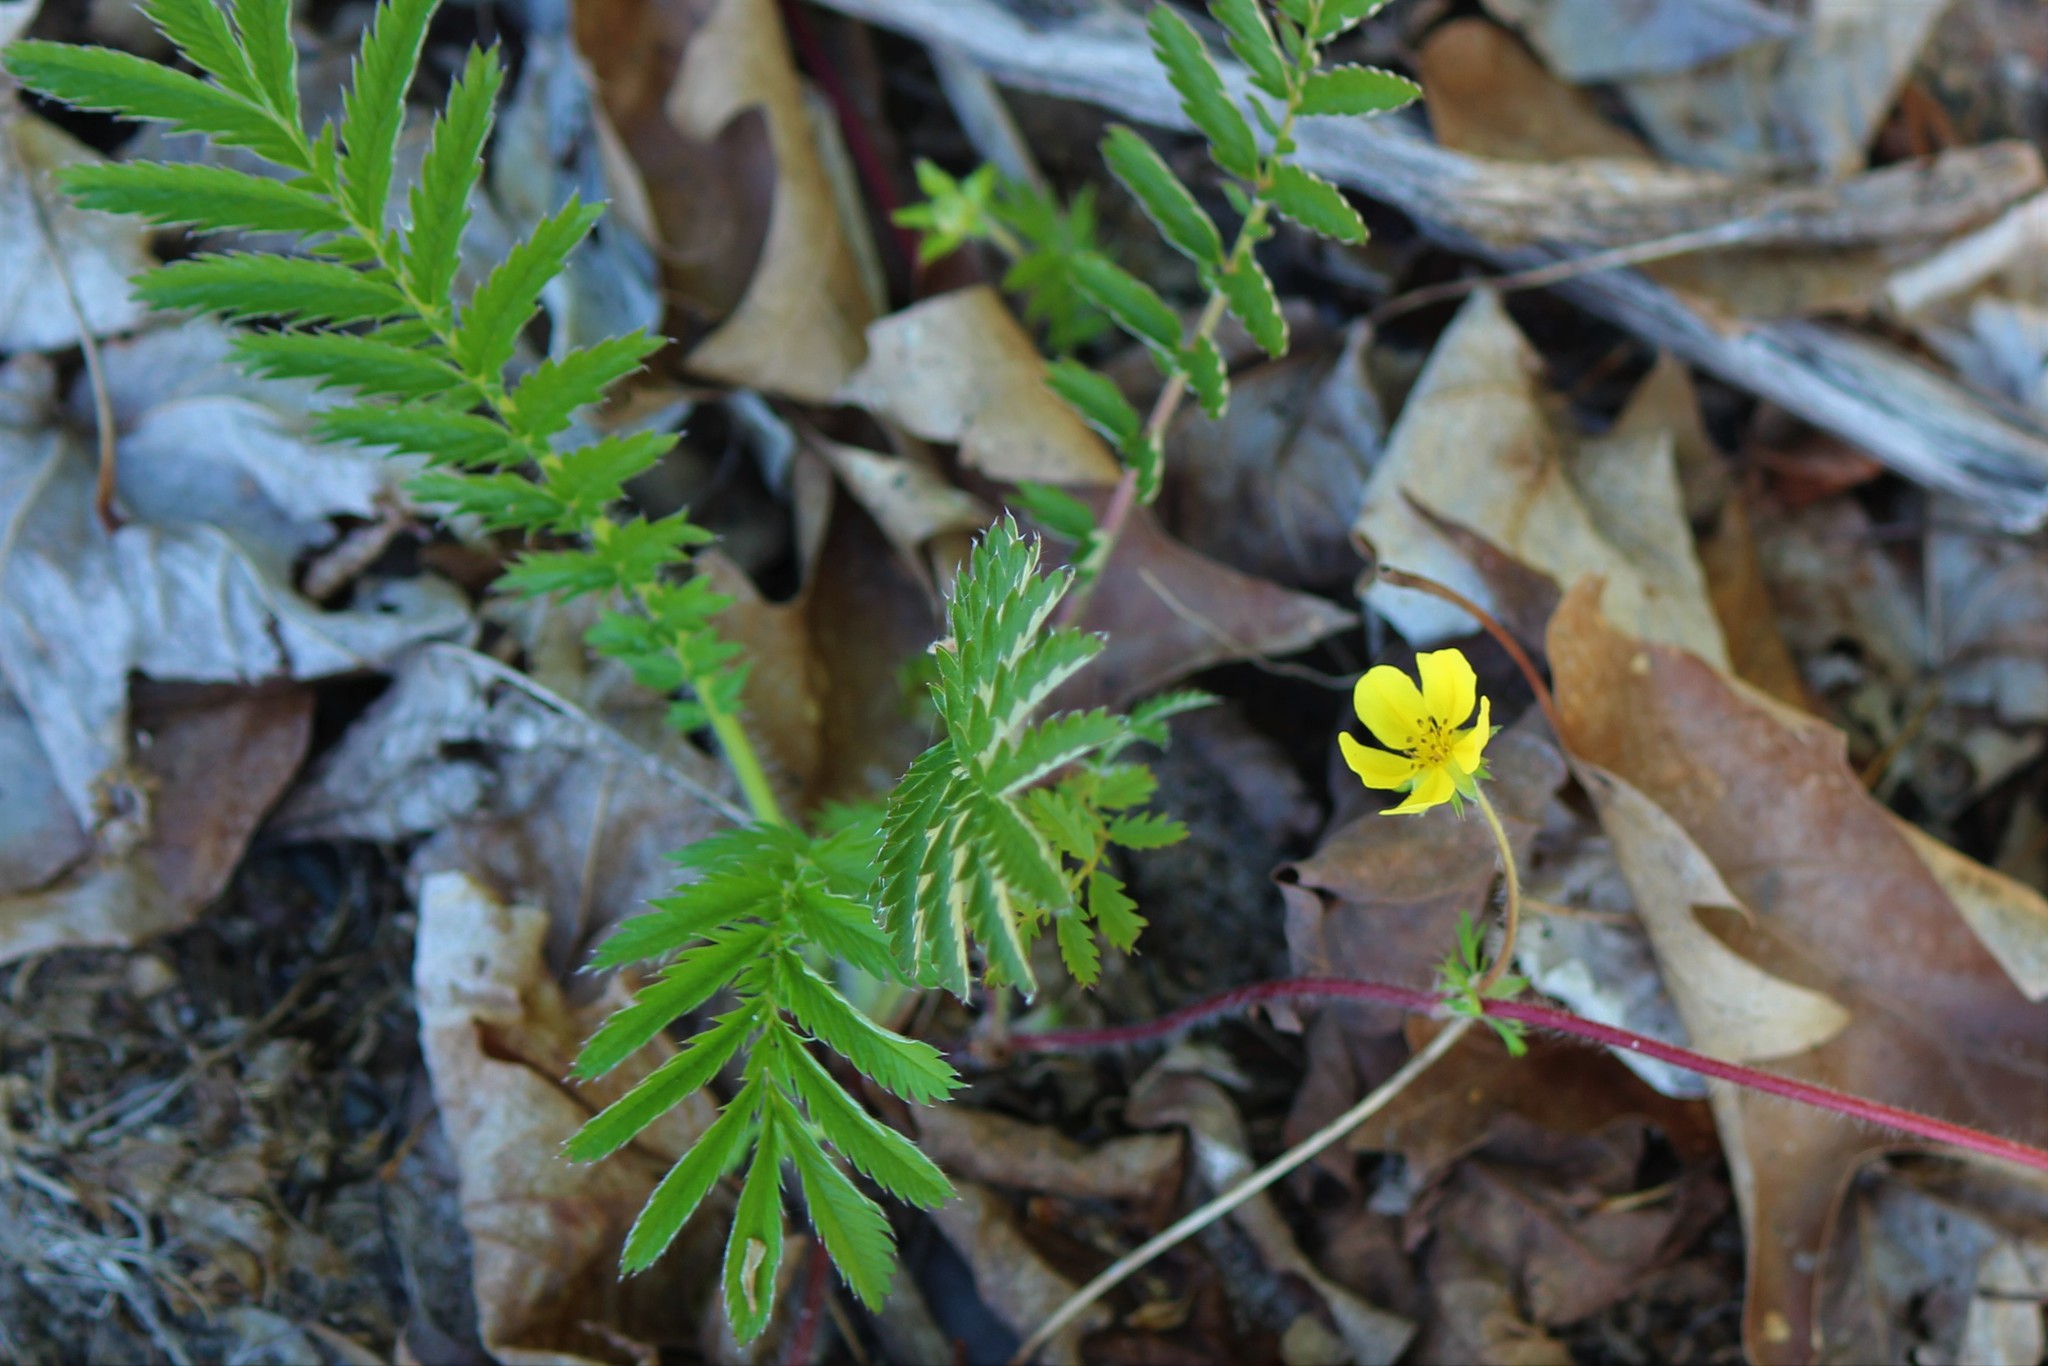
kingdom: Plantae
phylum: Tracheophyta
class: Magnoliopsida
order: Rosales
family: Rosaceae
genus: Argentina
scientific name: Argentina anserina
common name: Common silverweed
